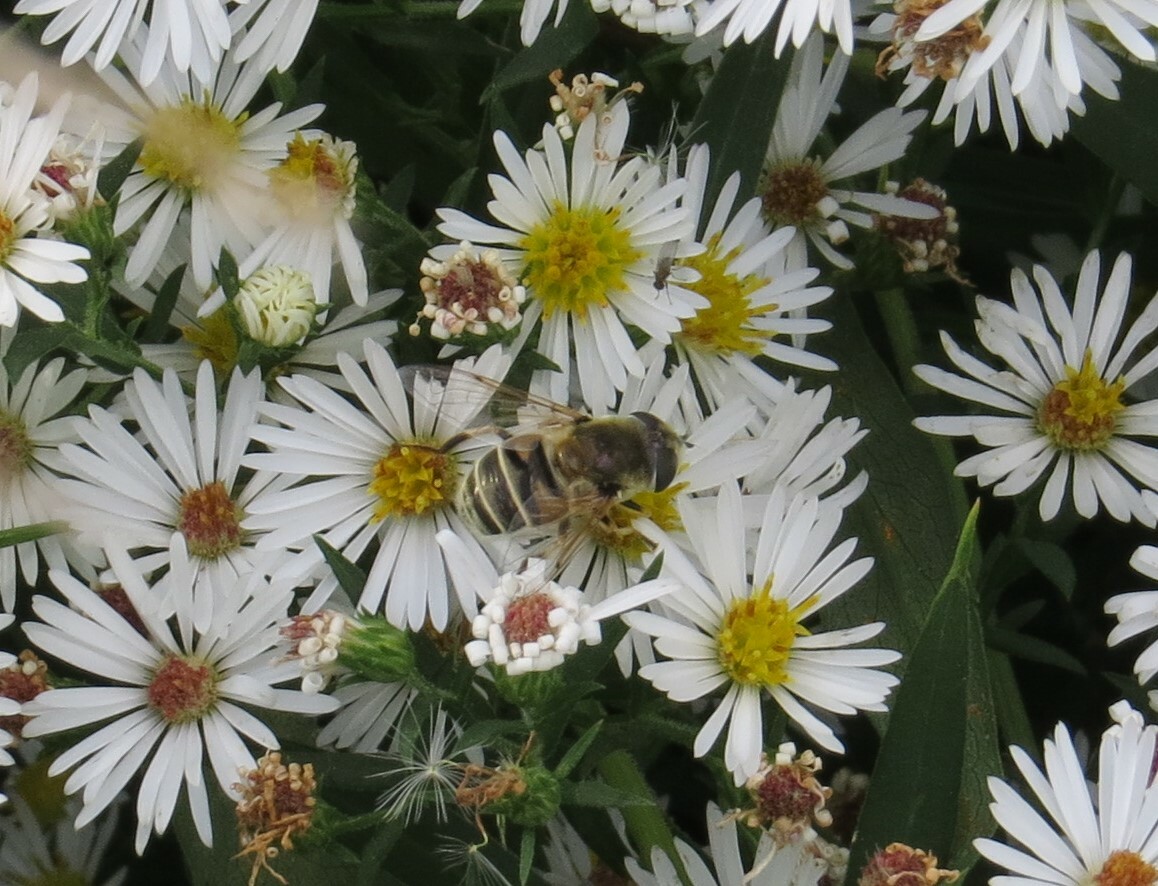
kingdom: Animalia
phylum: Arthropoda
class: Insecta
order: Diptera
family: Syrphidae
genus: Eristalis
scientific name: Eristalis stipator
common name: Yellow-shouldered drone fly
